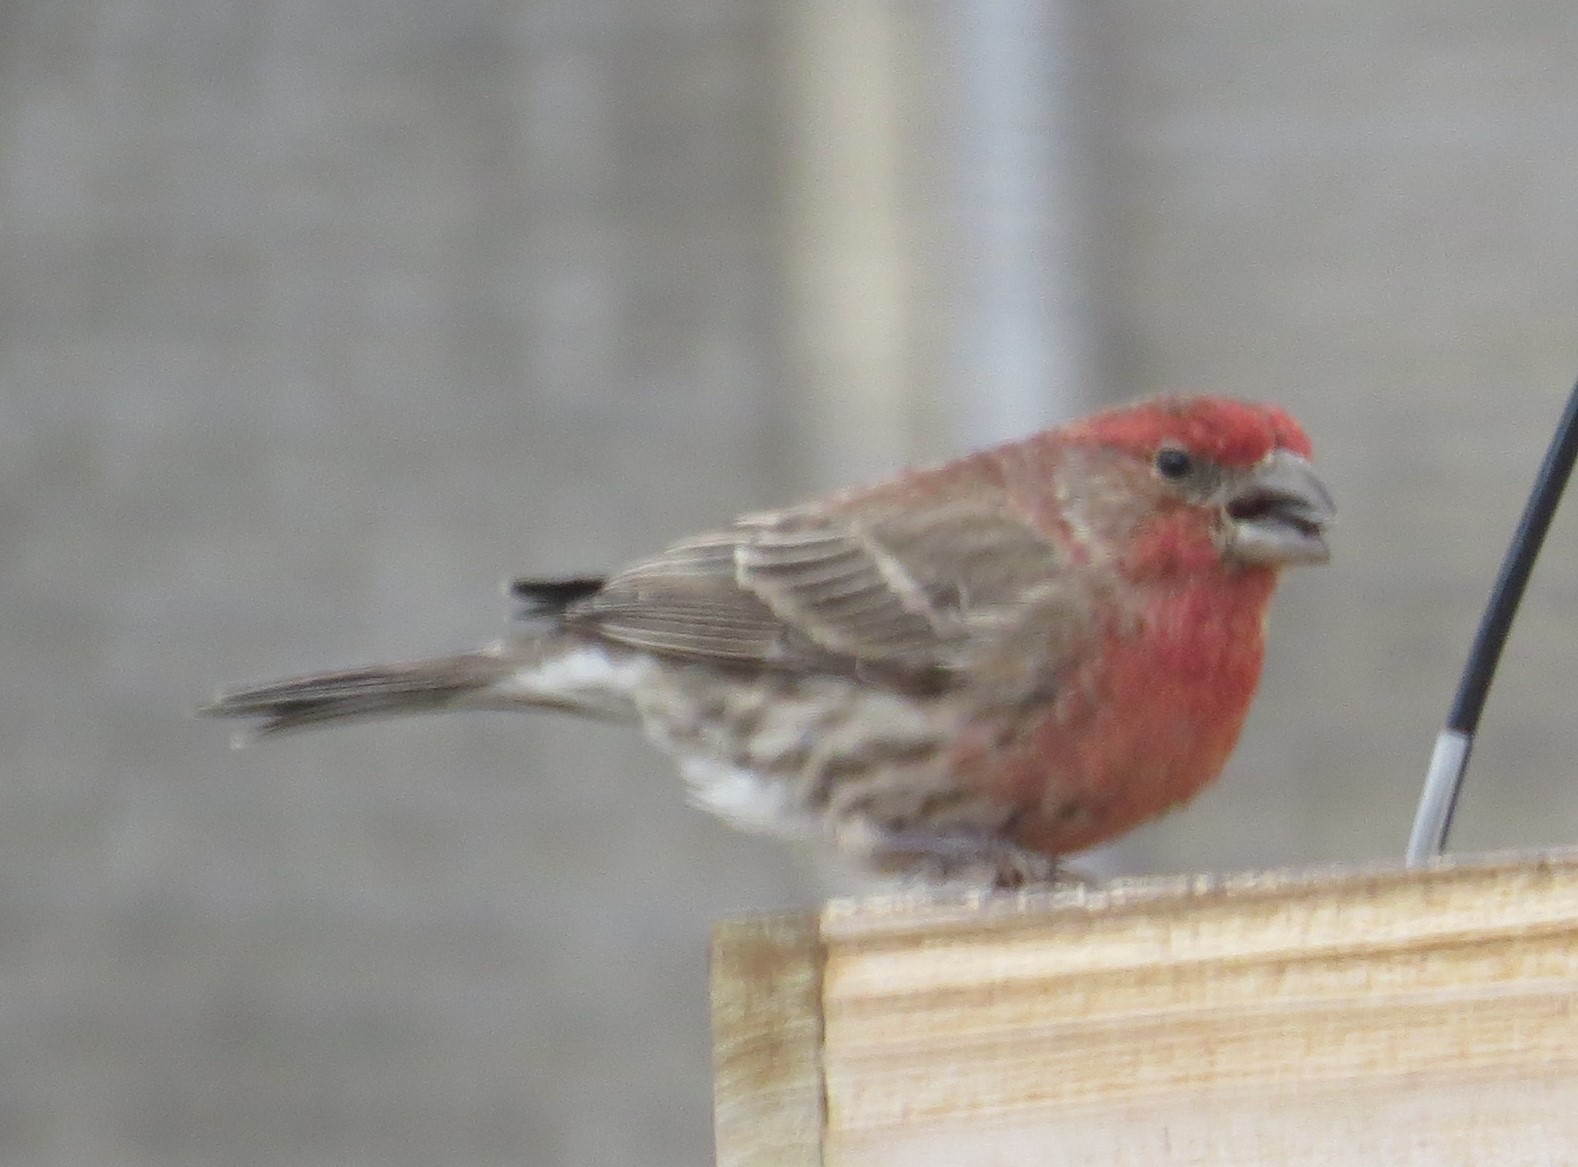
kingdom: Animalia
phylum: Chordata
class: Aves
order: Passeriformes
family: Fringillidae
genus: Haemorhous
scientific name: Haemorhous mexicanus
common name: House finch
